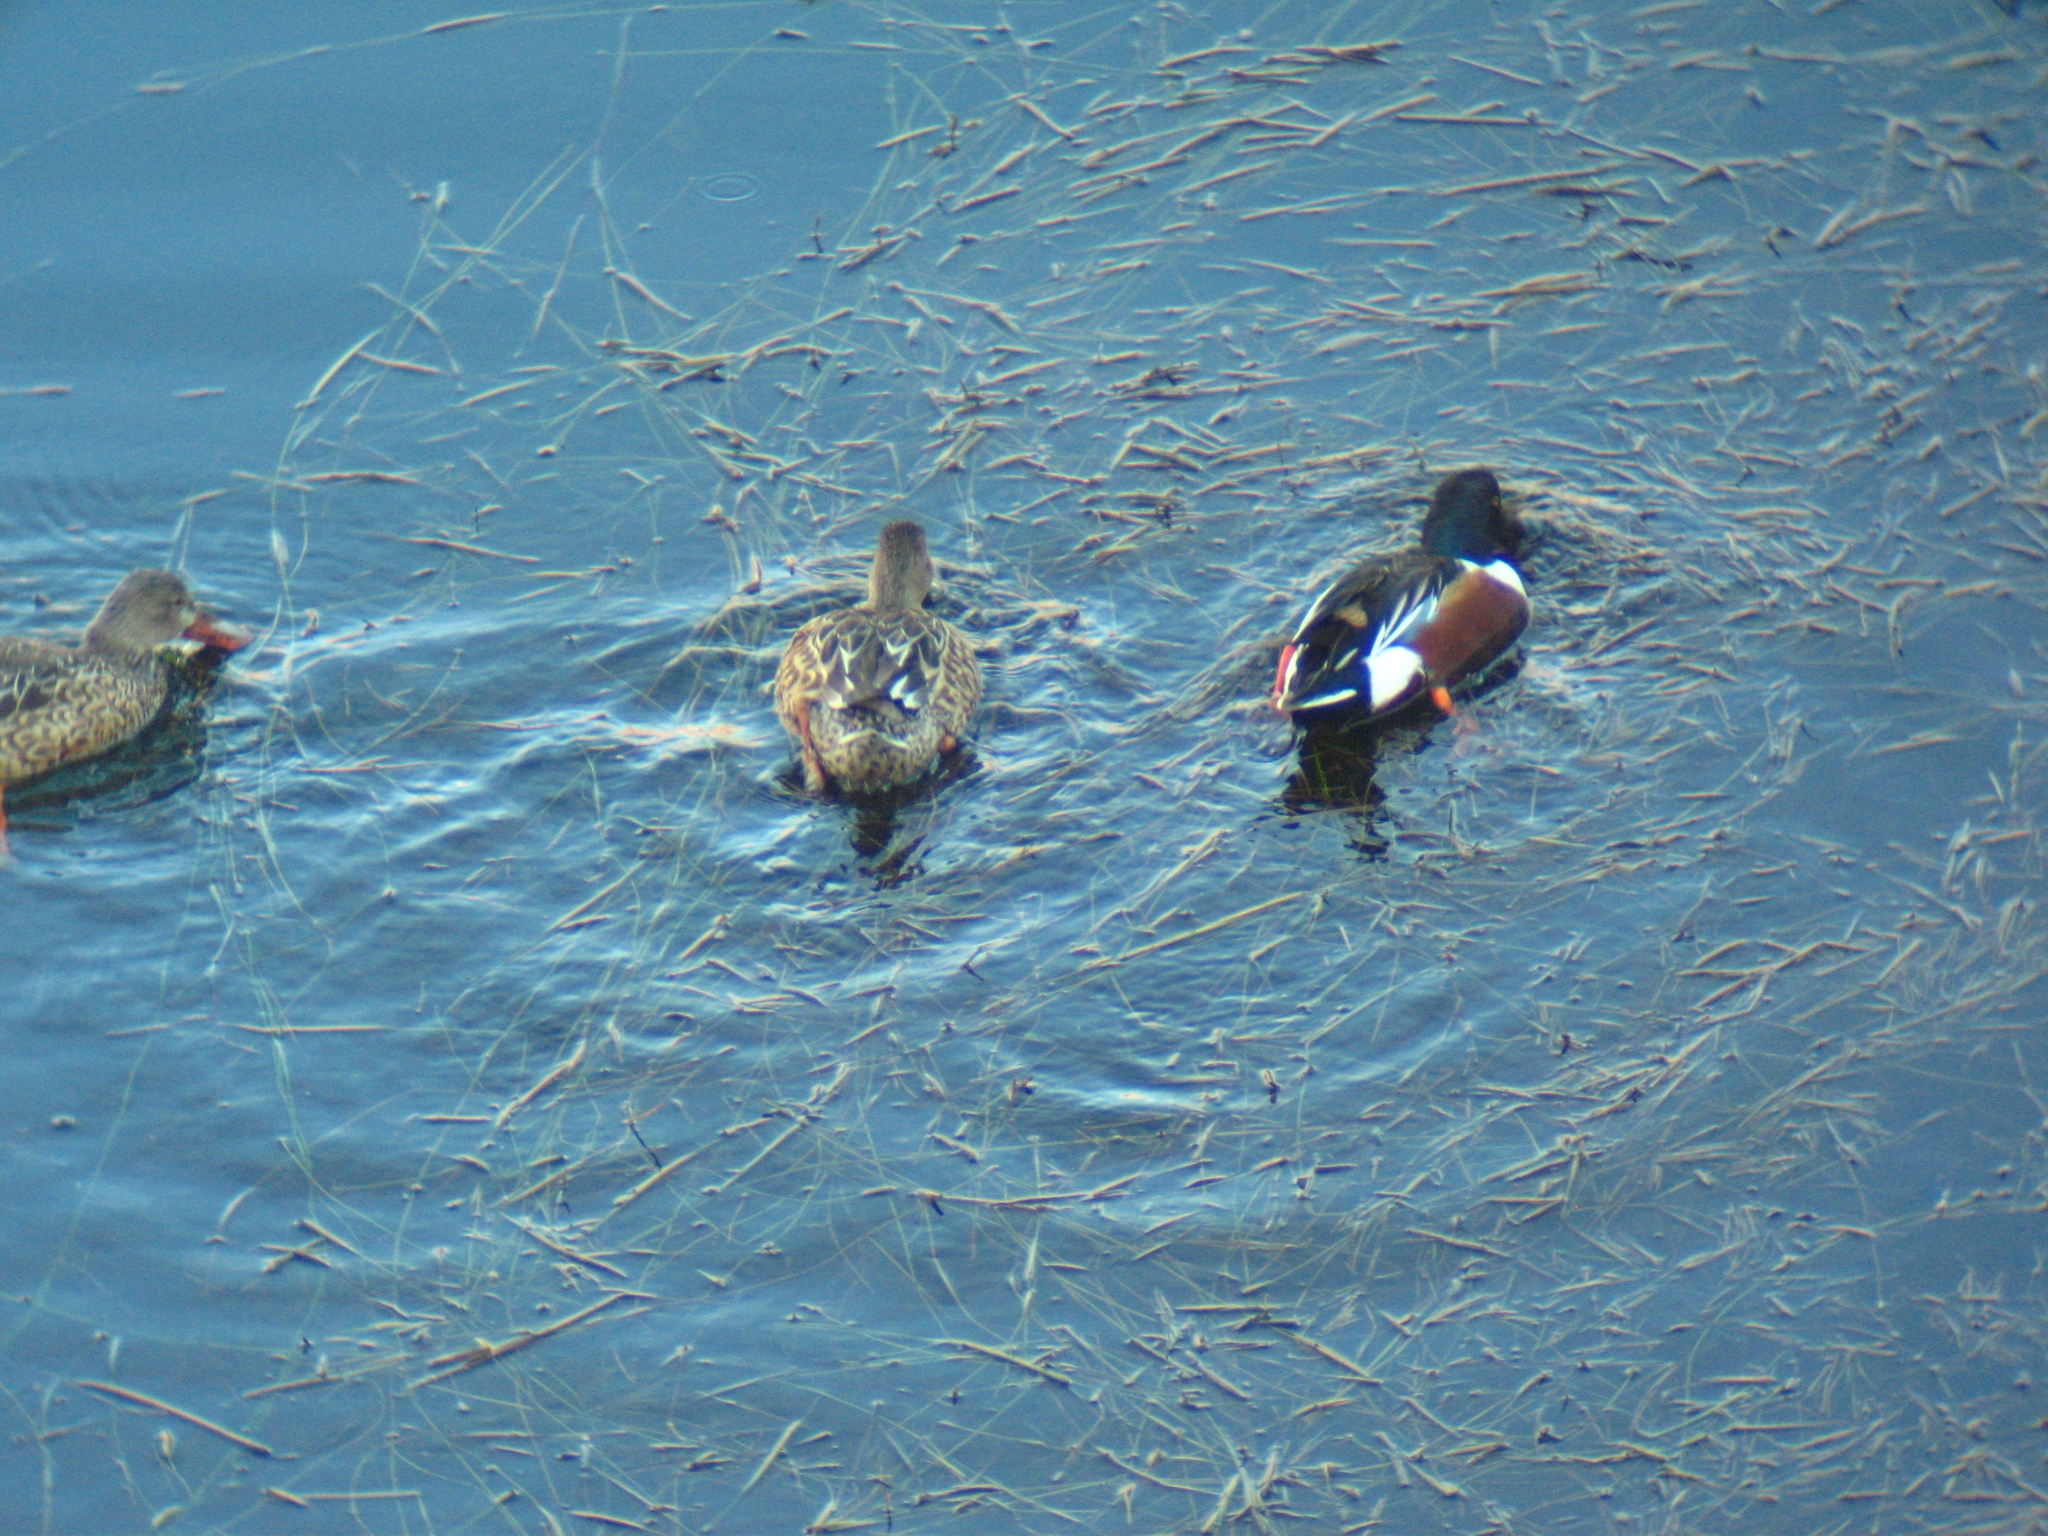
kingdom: Animalia
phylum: Chordata
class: Aves
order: Anseriformes
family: Anatidae
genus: Spatula
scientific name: Spatula clypeata
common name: Northern shoveler
